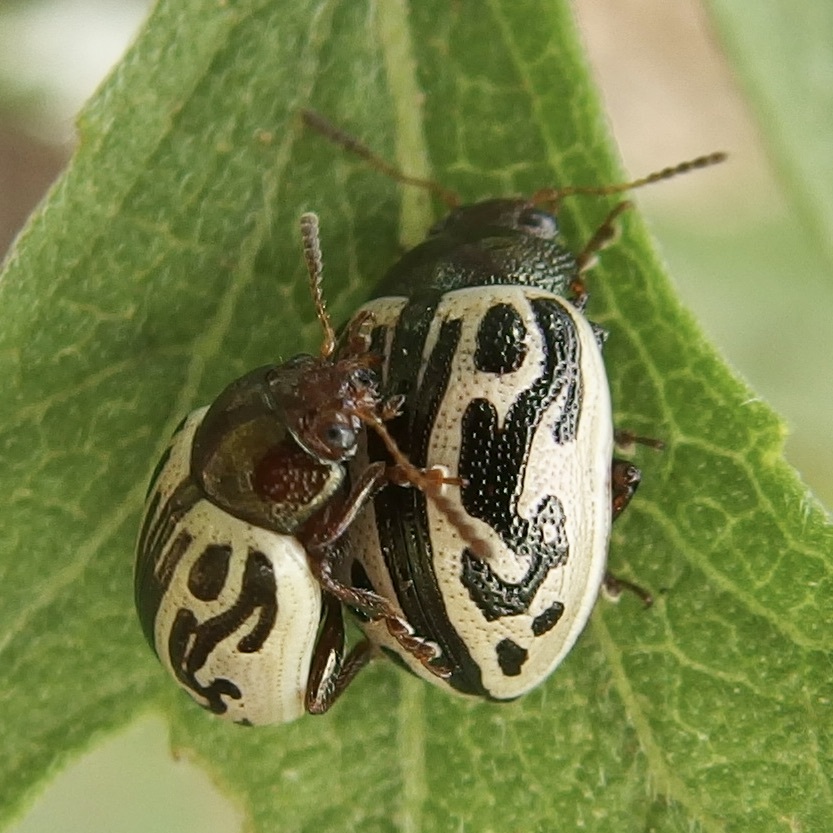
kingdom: Animalia
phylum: Arthropoda
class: Insecta
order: Coleoptera
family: Chrysomelidae
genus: Calligrapha
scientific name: Calligrapha
